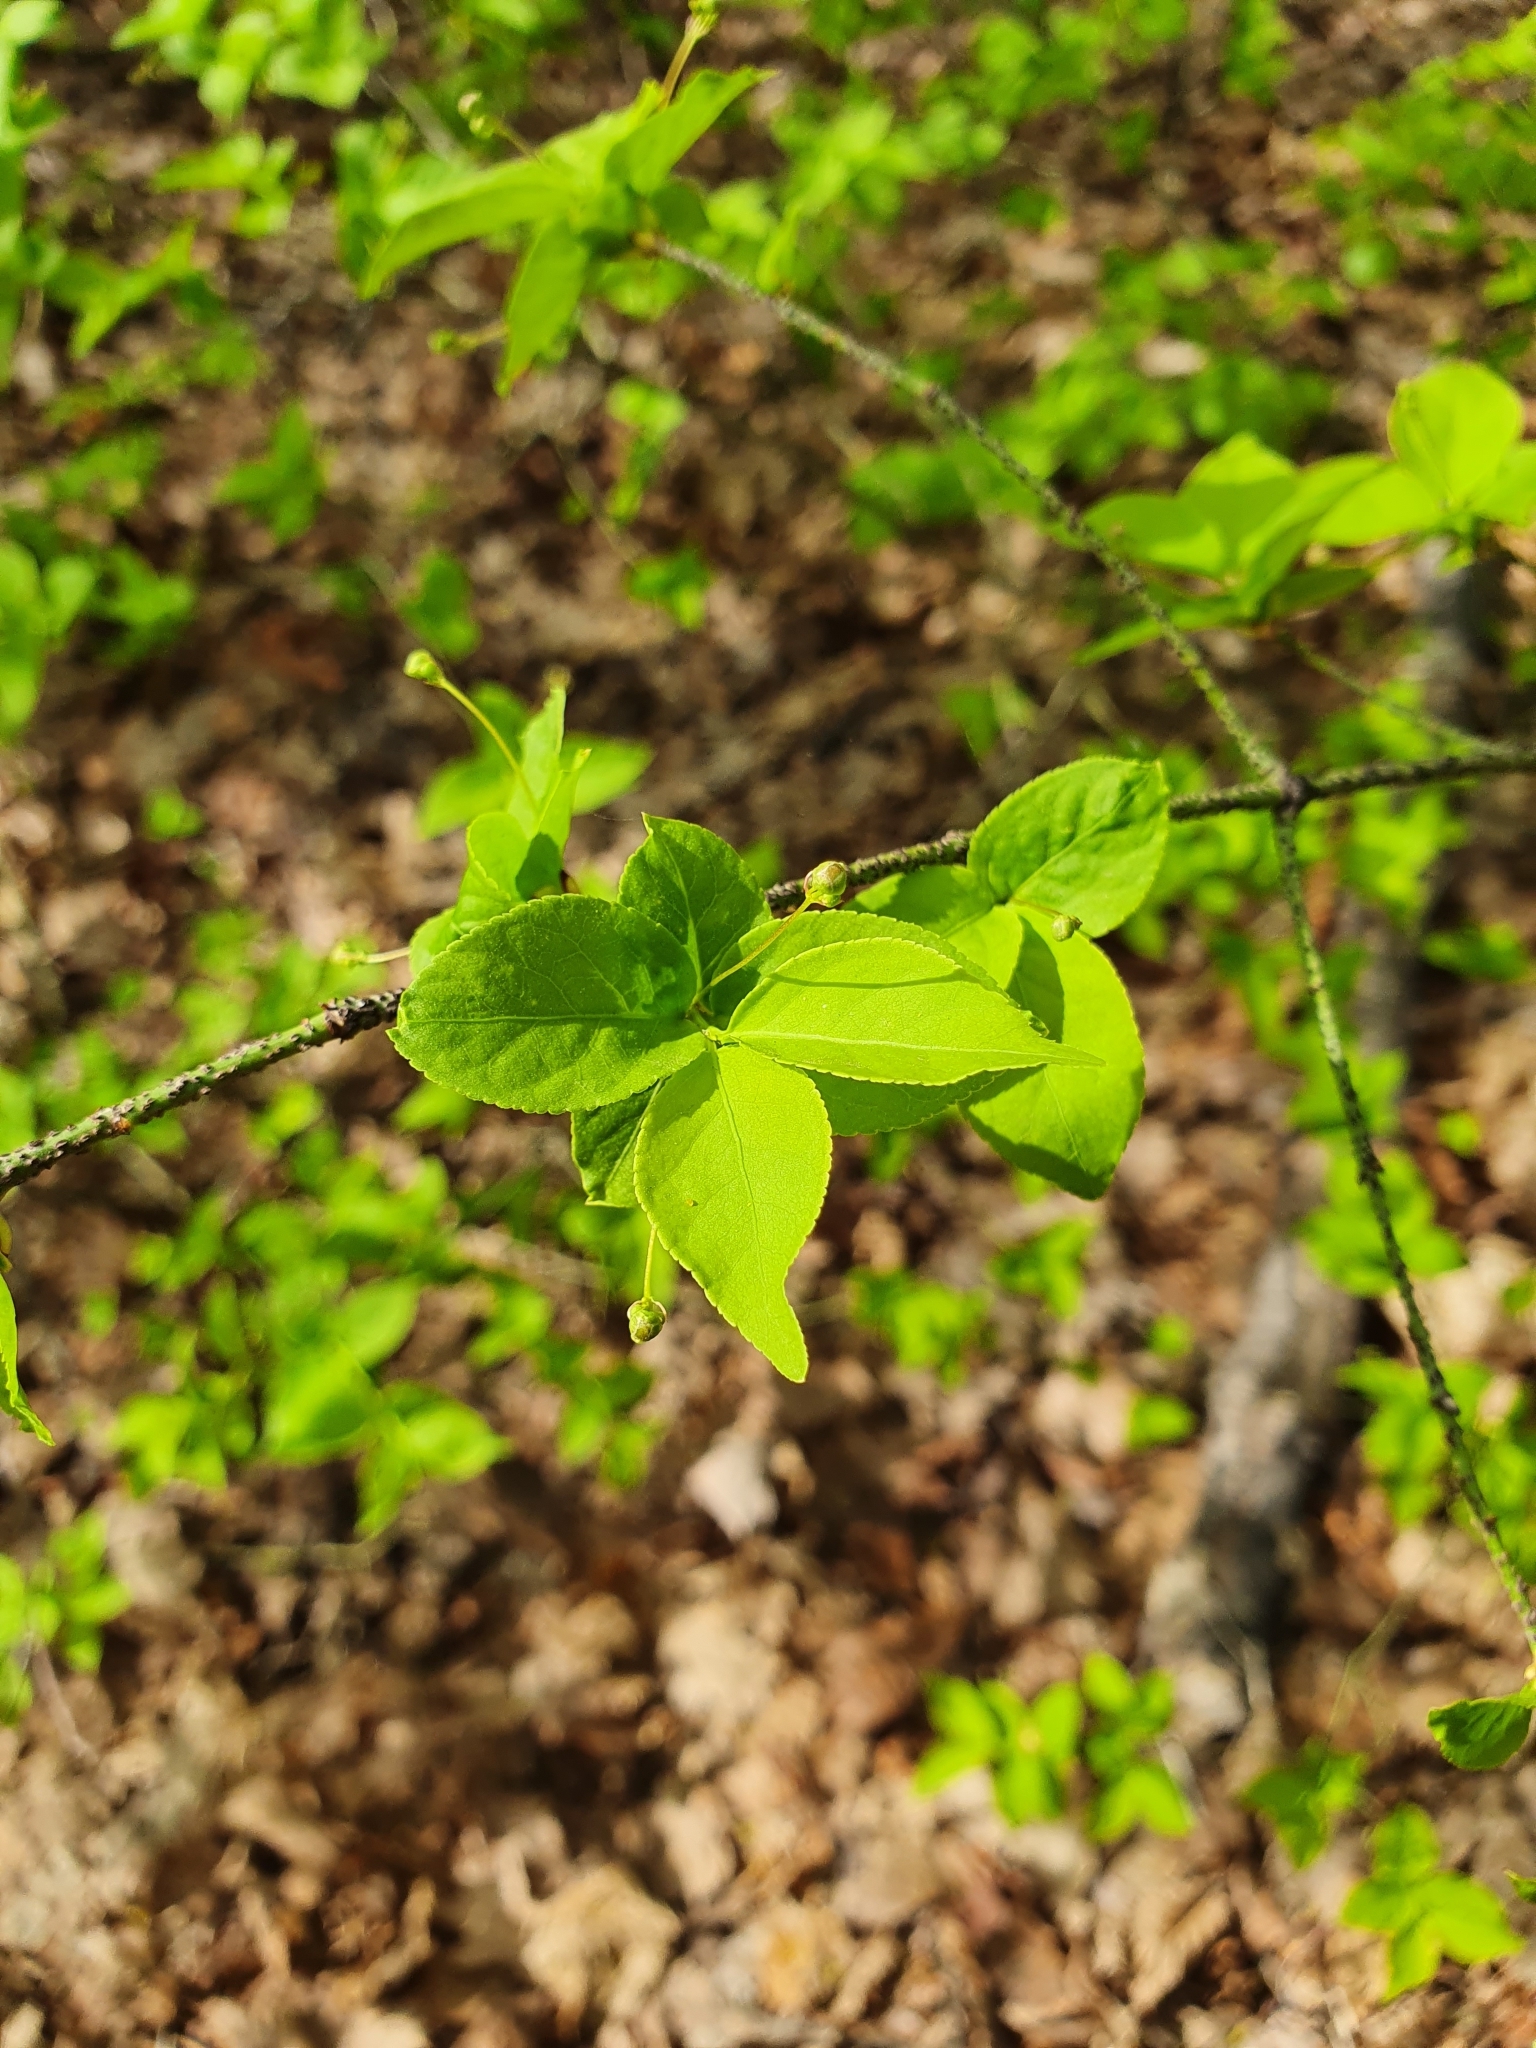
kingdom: Plantae
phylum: Tracheophyta
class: Magnoliopsida
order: Celastrales
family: Celastraceae
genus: Euonymus
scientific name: Euonymus verrucosus
